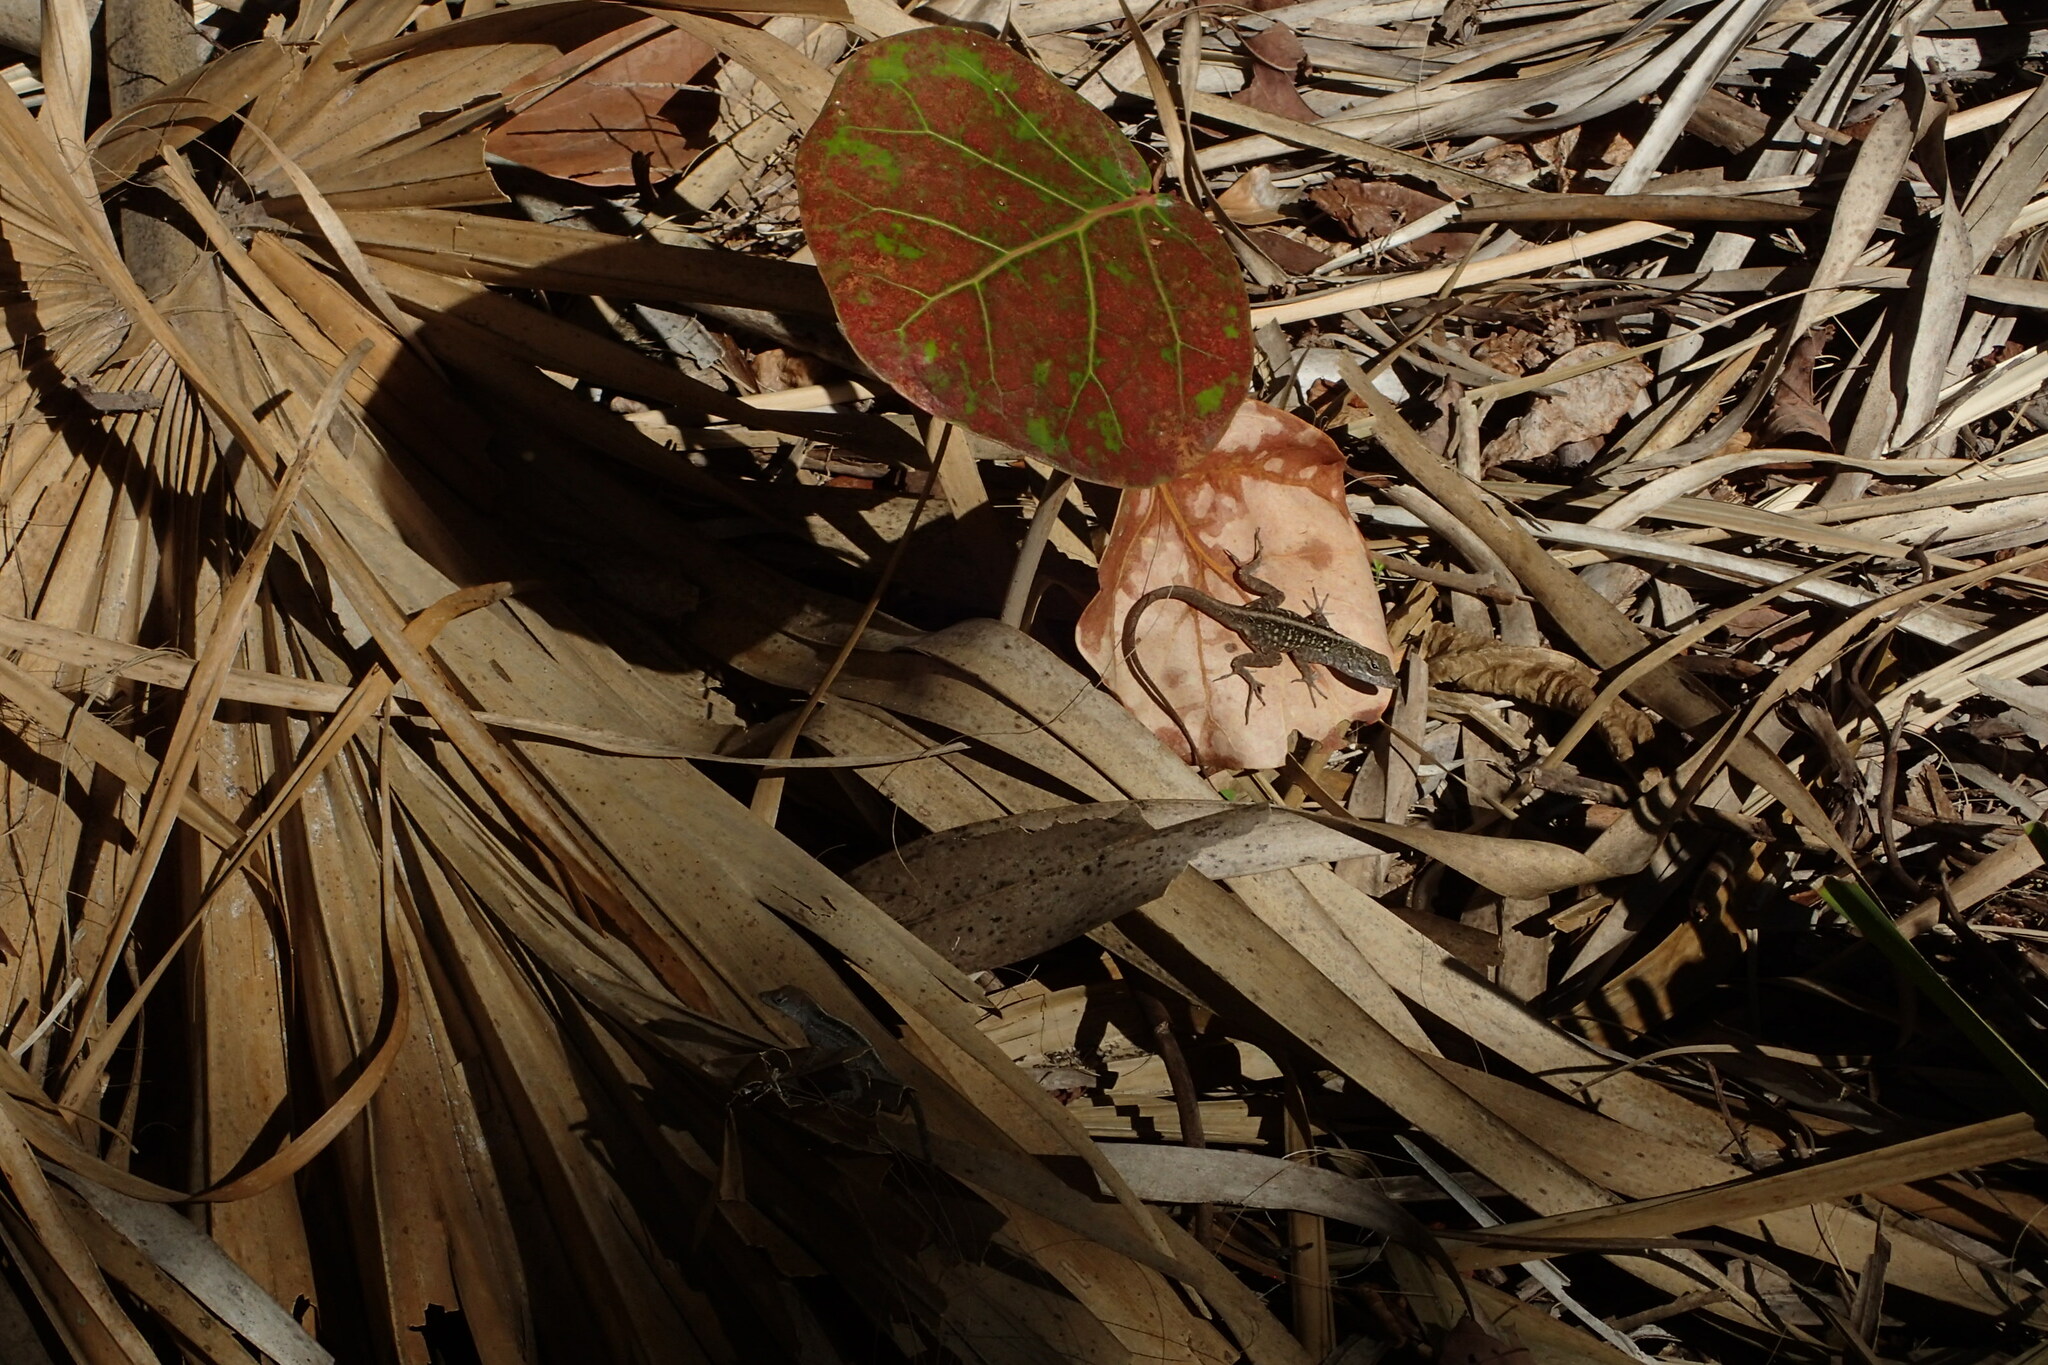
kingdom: Animalia
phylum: Chordata
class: Squamata
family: Dactyloidae
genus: Anolis
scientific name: Anolis sagrei
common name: Brown anole
